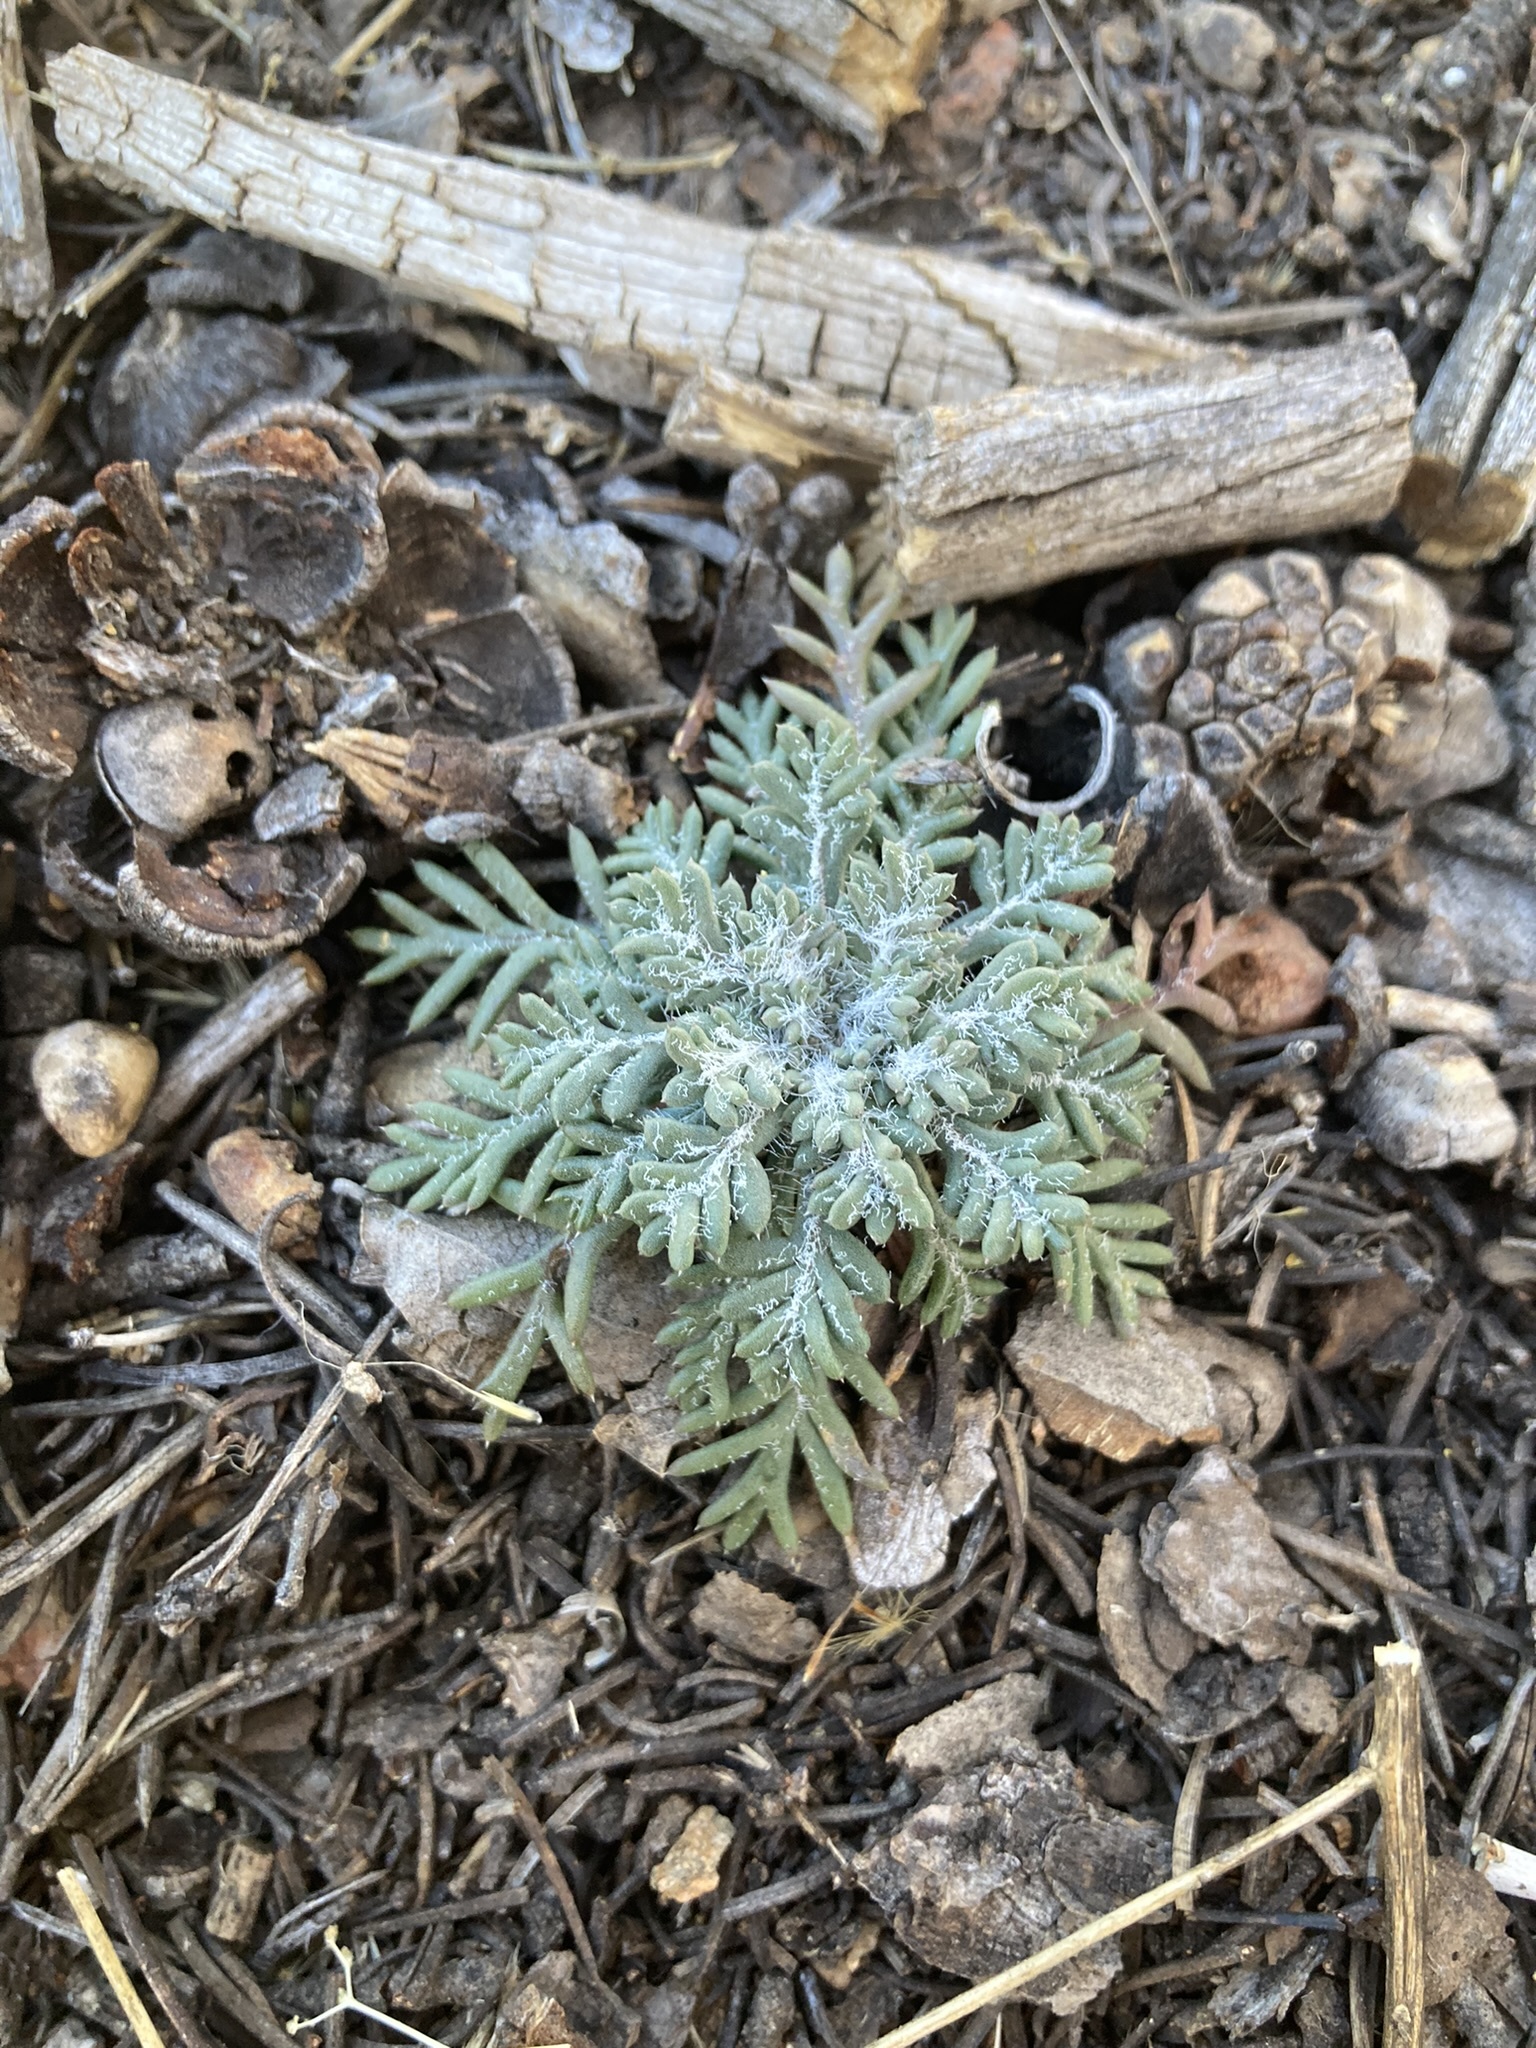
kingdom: Plantae
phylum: Tracheophyta
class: Magnoliopsida
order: Ericales
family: Polemoniaceae
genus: Ipomopsis
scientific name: Ipomopsis aggregata
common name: Scarlet gilia
